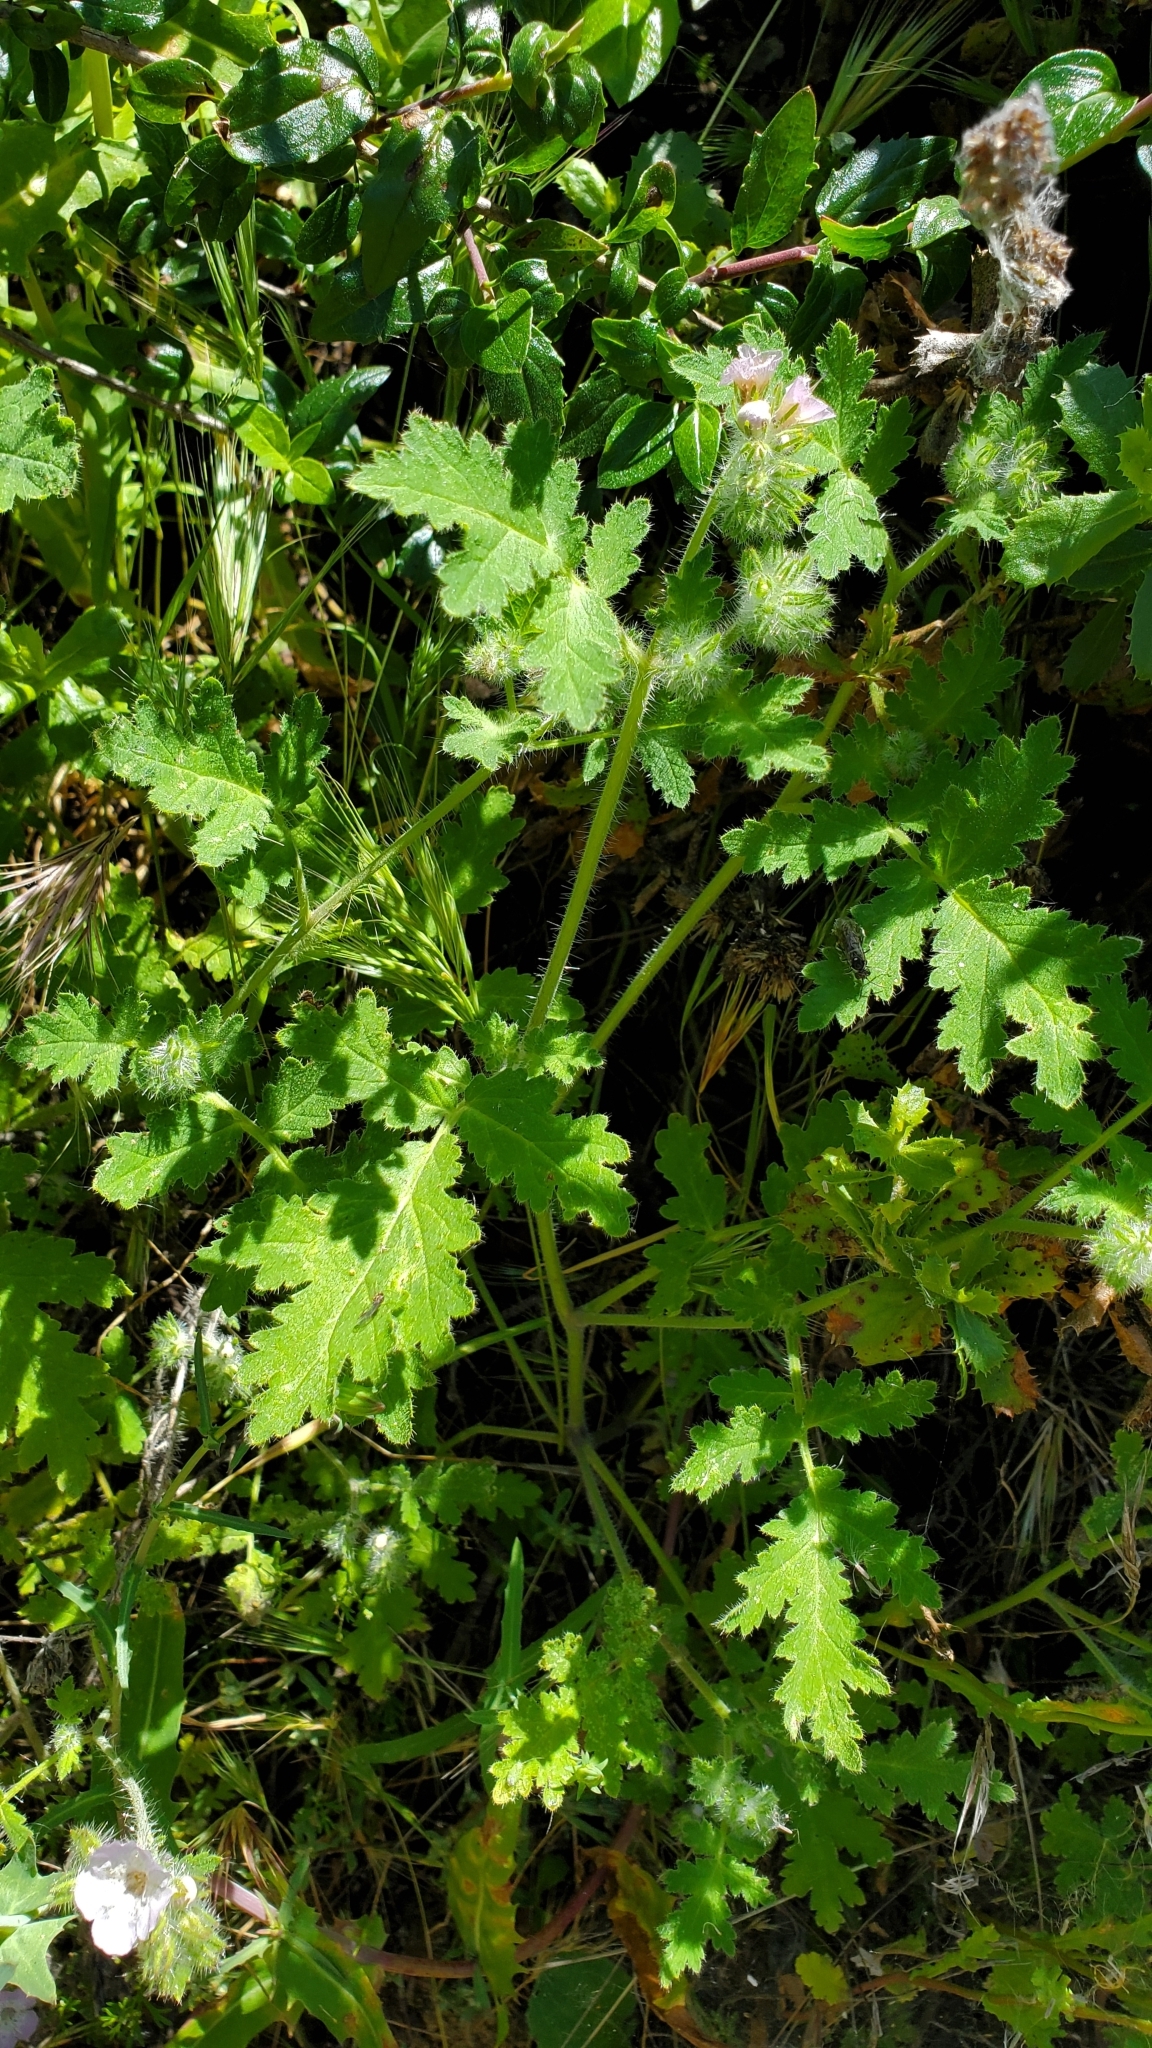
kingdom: Plantae
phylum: Tracheophyta
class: Magnoliopsida
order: Boraginales
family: Hydrophyllaceae
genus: Phacelia
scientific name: Phacelia cicutaria
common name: Caterpillar phacelia
